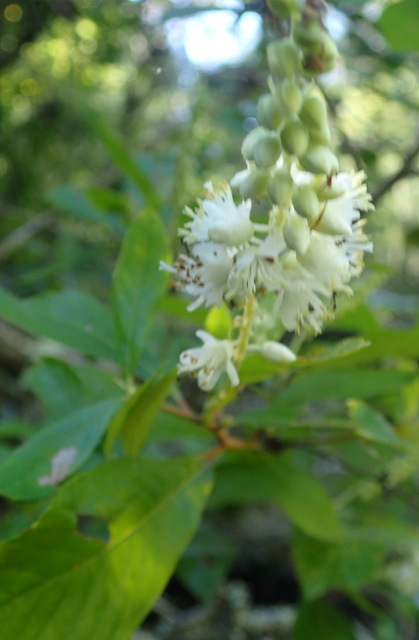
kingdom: Plantae
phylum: Tracheophyta
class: Magnoliopsida
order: Ericales
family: Clethraceae
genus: Clethra
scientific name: Clethra alnifolia
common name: Sweet pepperbush
